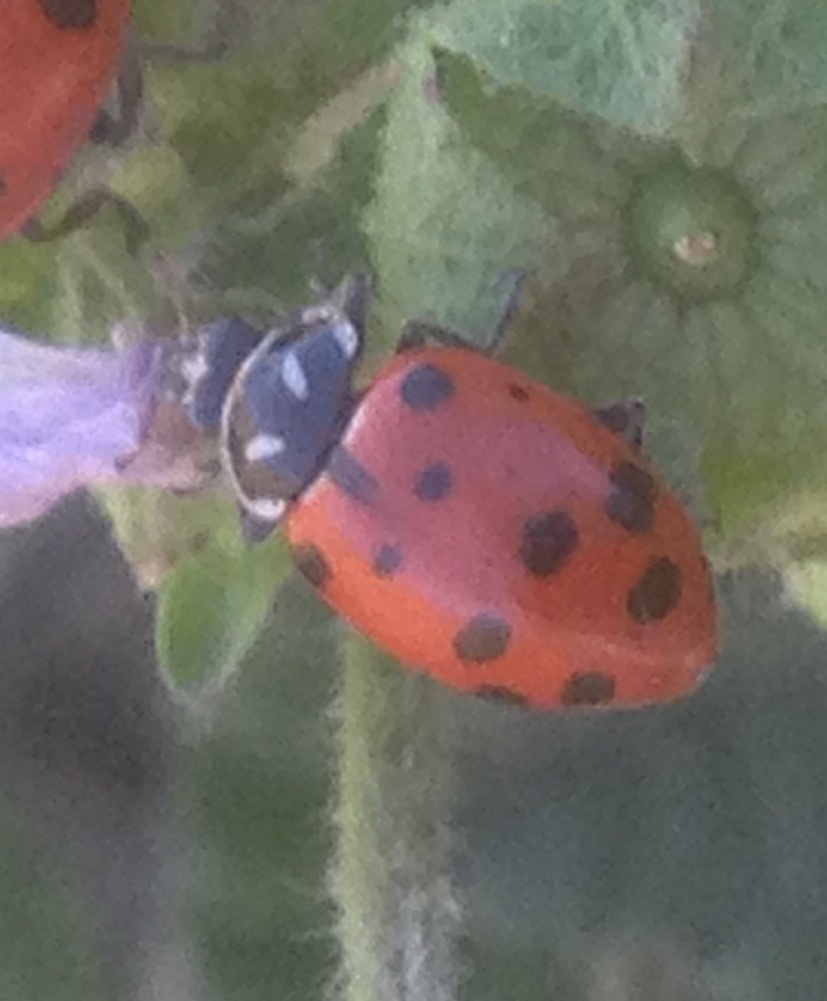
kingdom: Animalia
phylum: Arthropoda
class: Insecta
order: Coleoptera
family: Coccinellidae
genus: Hippodamia
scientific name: Hippodamia convergens
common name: Convergent lady beetle
